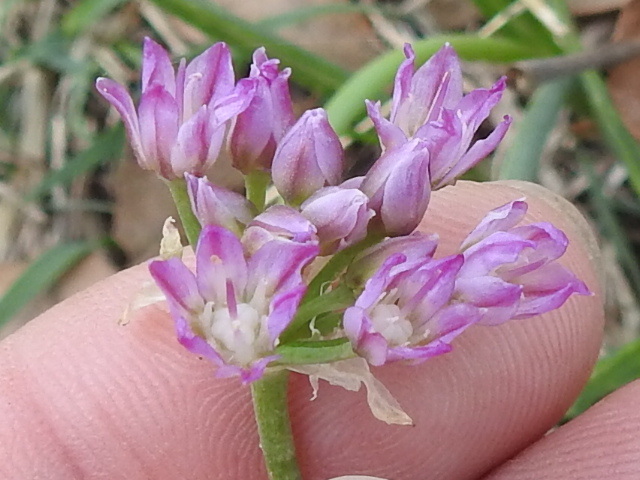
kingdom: Plantae
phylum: Tracheophyta
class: Liliopsida
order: Asparagales
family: Amaryllidaceae
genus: Allium
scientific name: Allium drummondii
